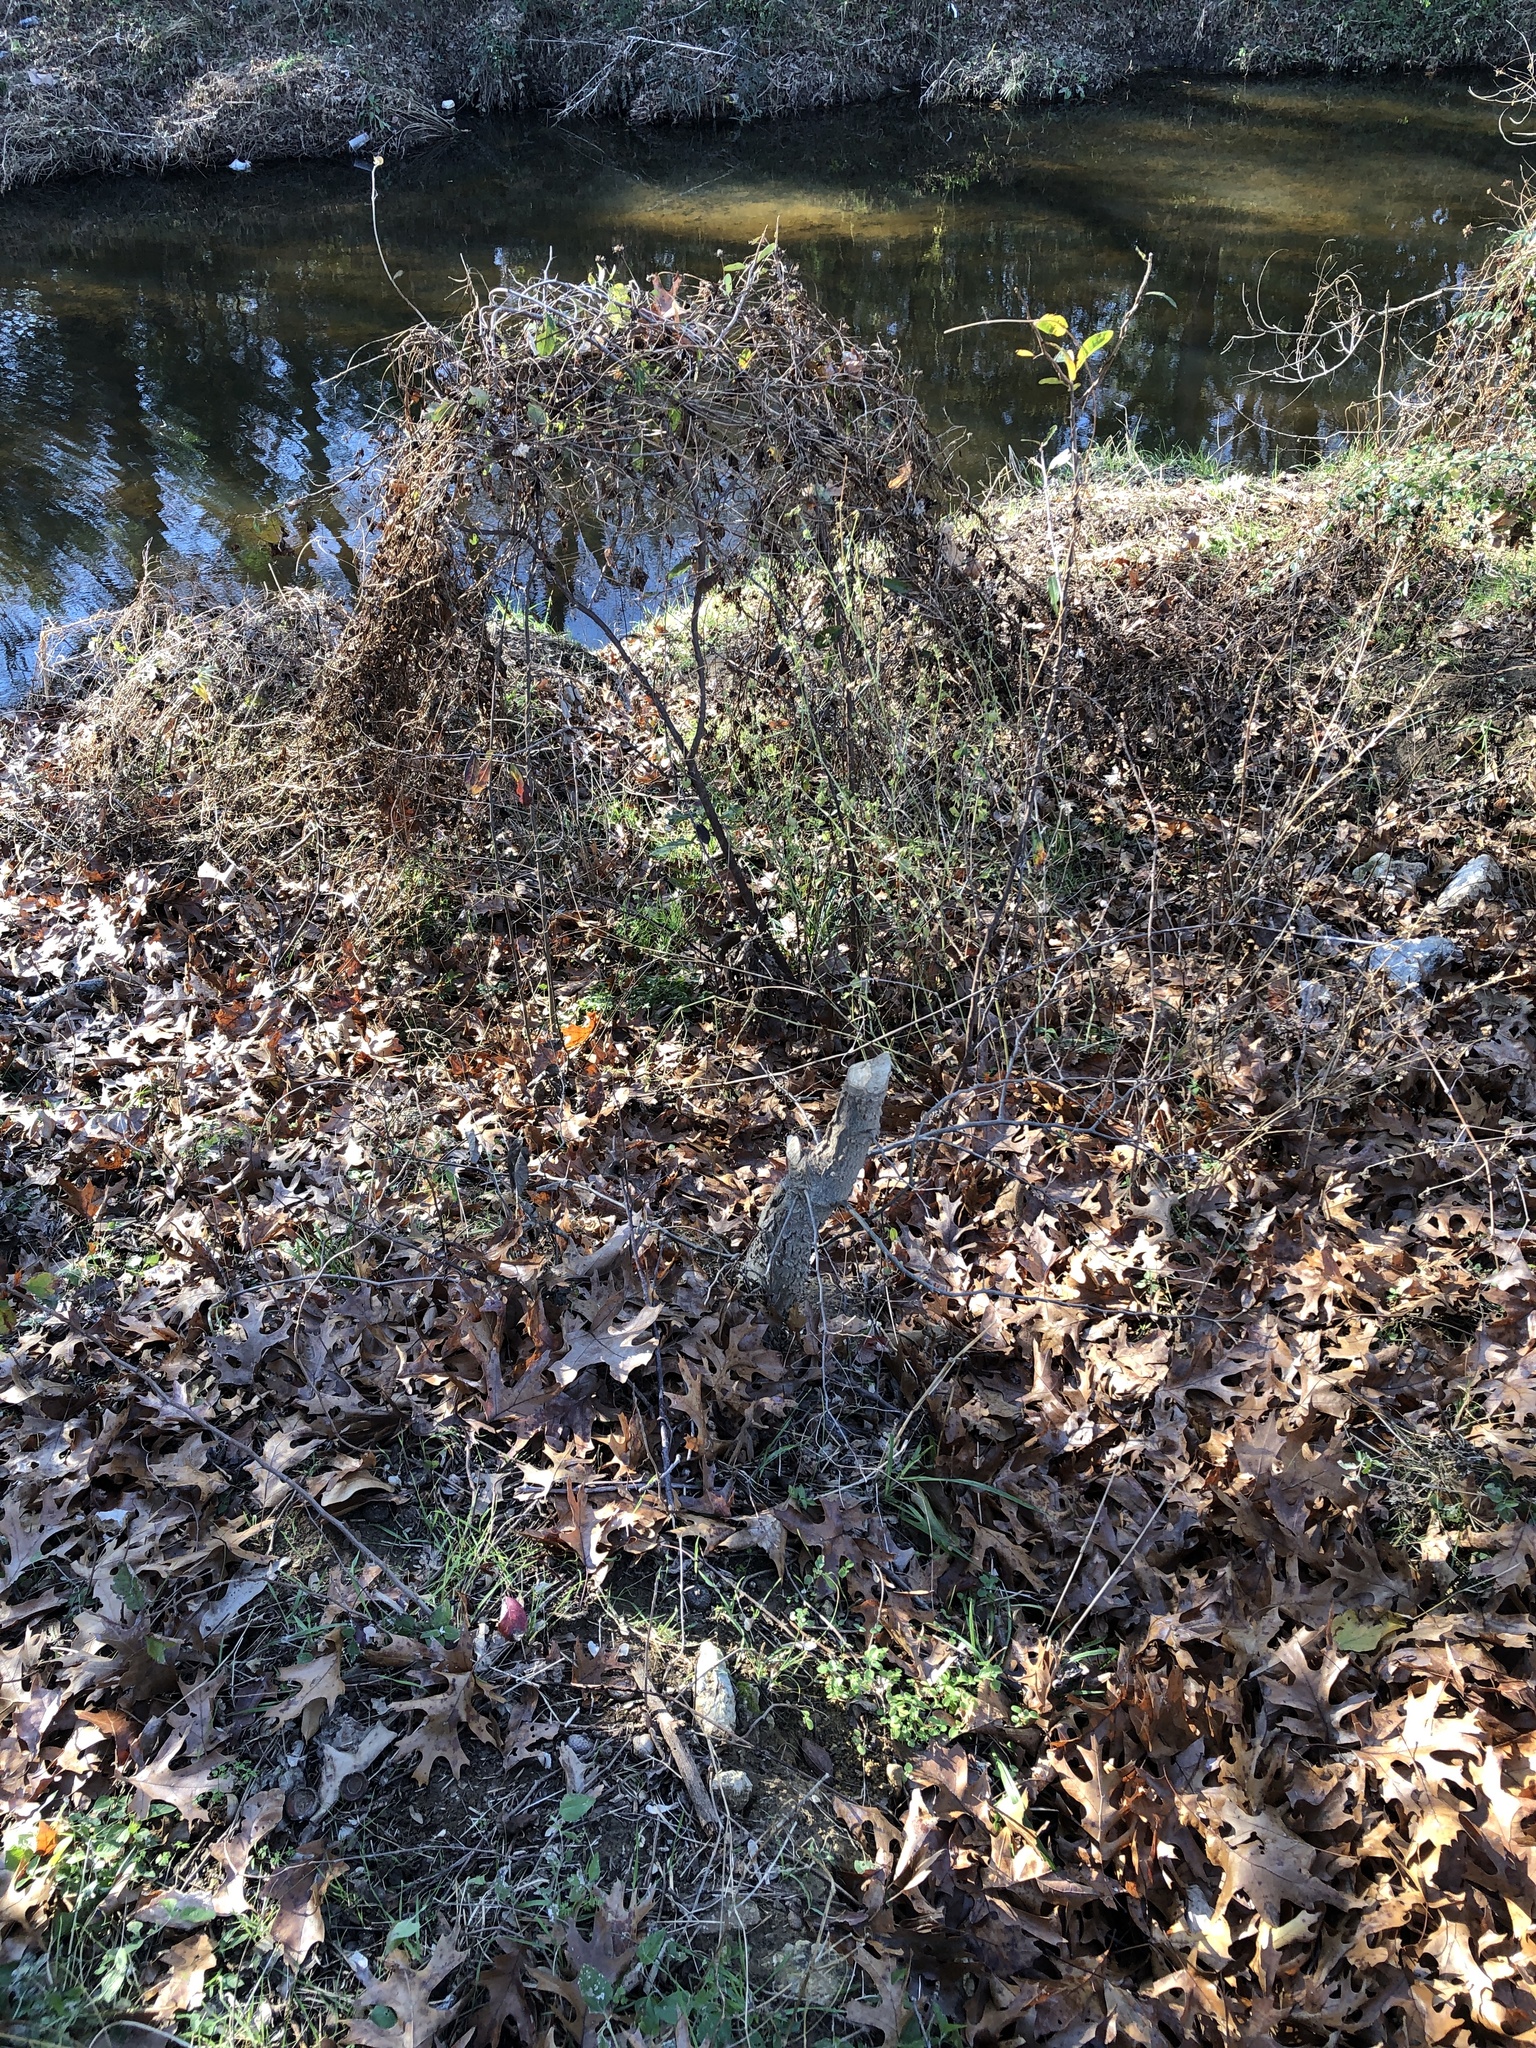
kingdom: Animalia
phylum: Chordata
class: Mammalia
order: Rodentia
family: Castoridae
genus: Castor
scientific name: Castor canadensis
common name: American beaver
